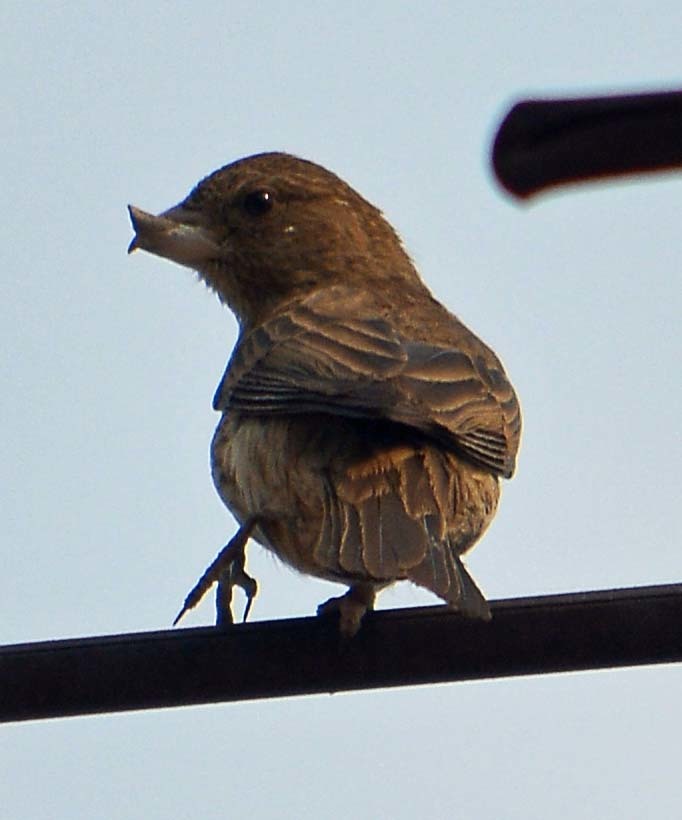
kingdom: Animalia
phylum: Chordata
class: Aves
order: Passeriformes
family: Passeridae
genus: Passer
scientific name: Passer domesticus
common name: House sparrow
